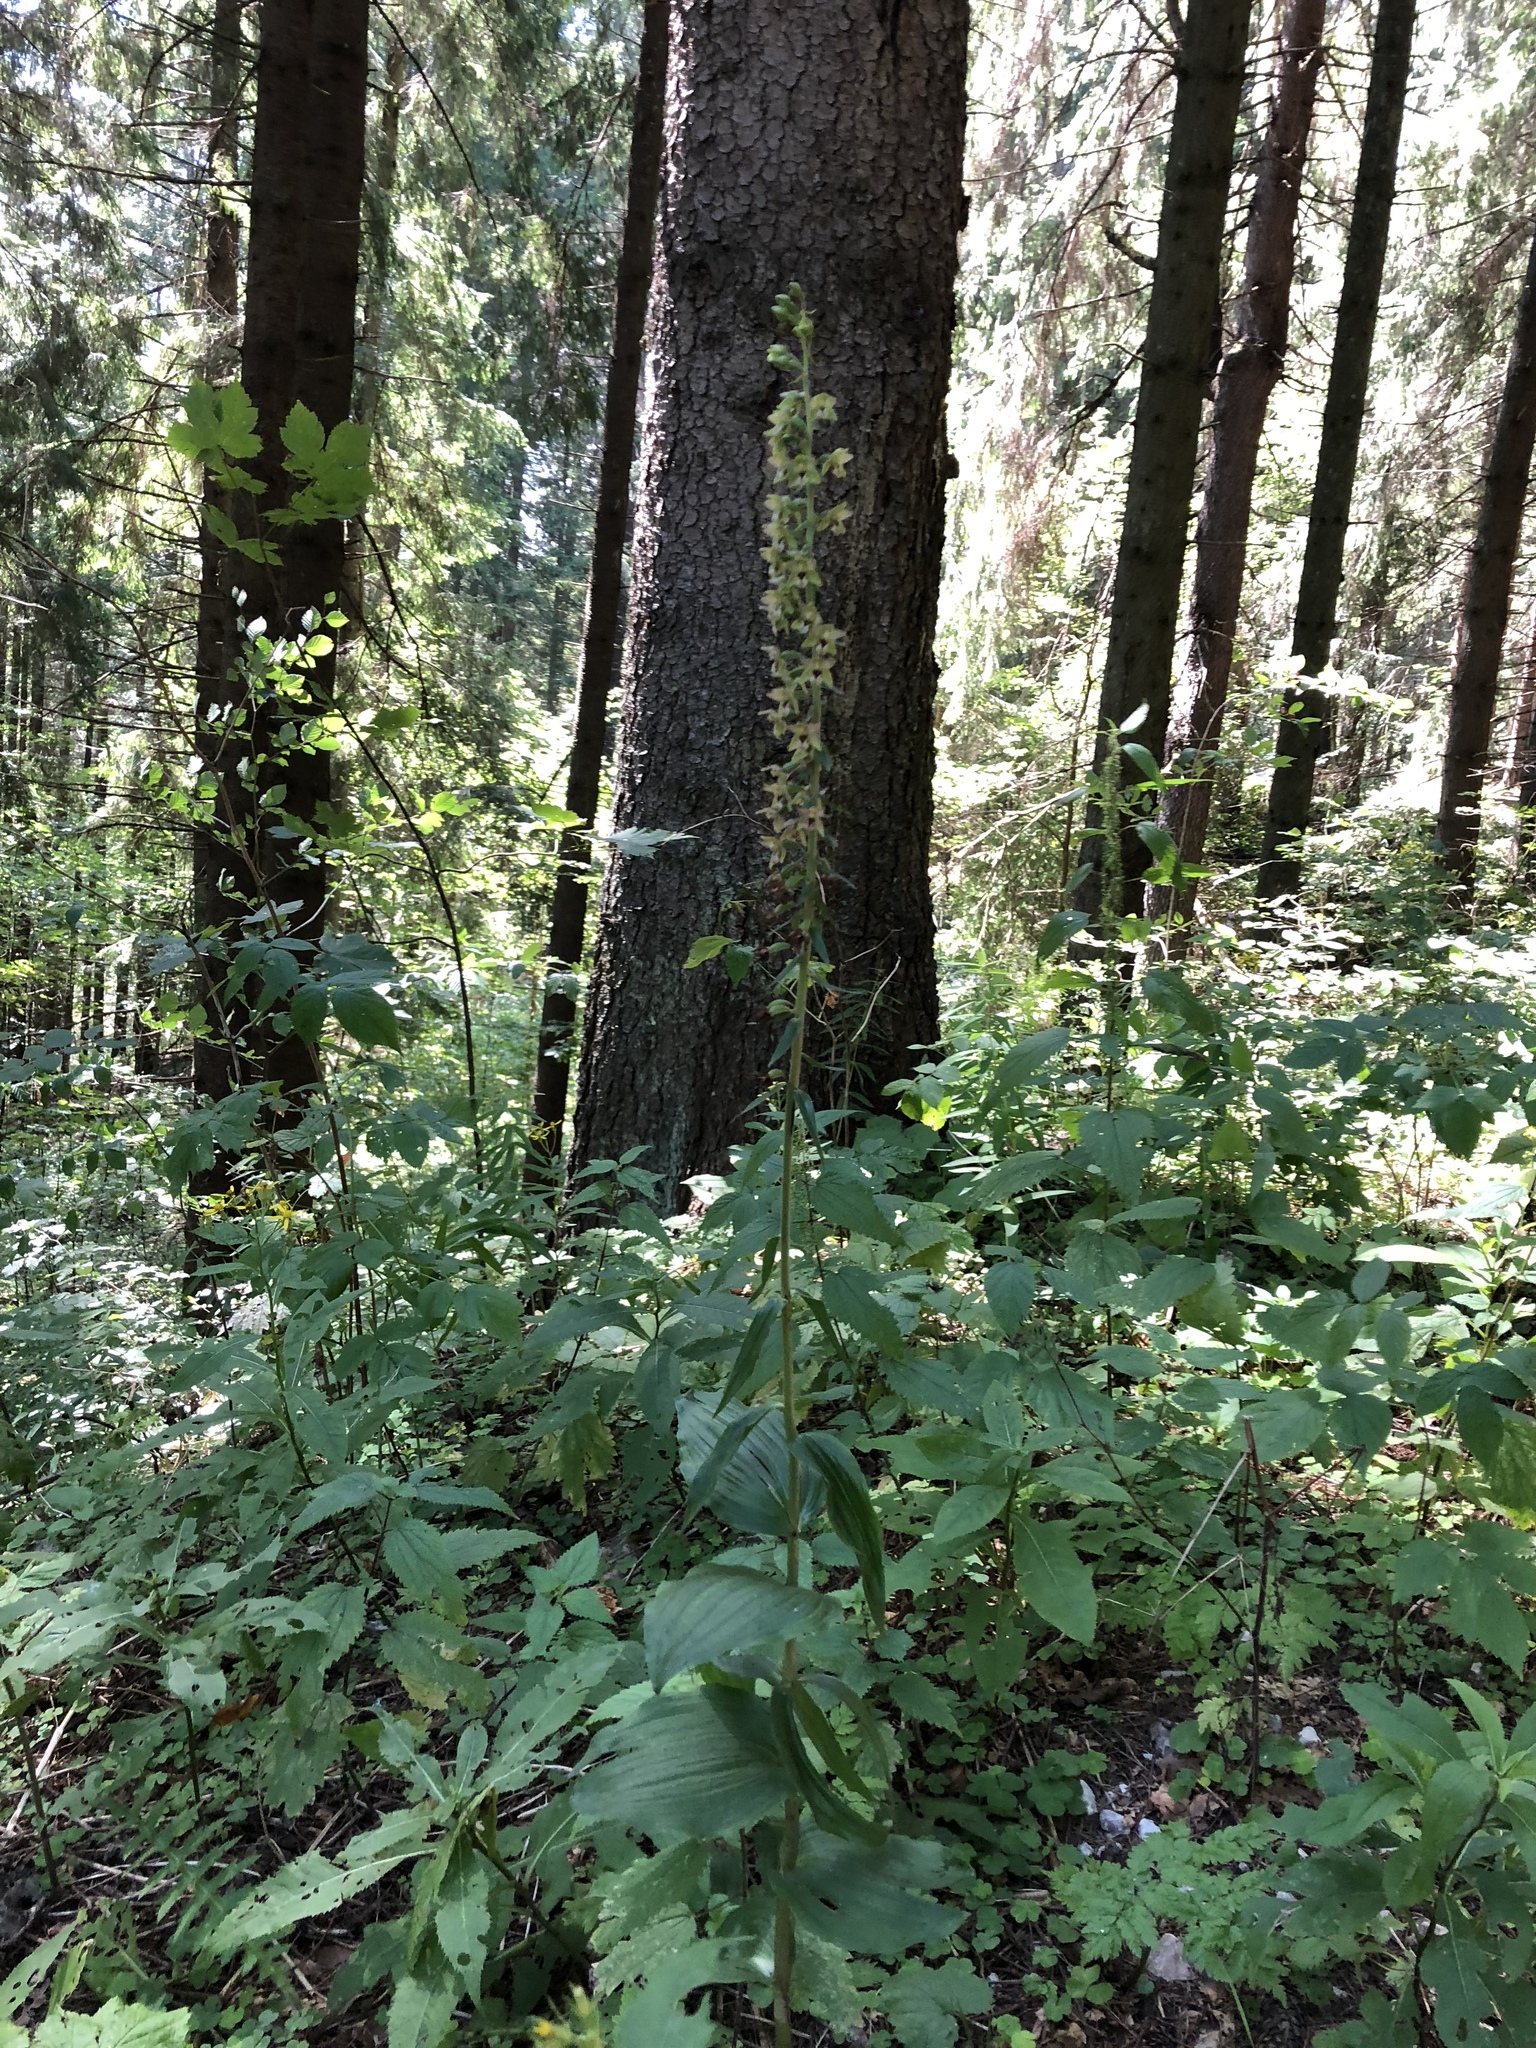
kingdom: Plantae
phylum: Tracheophyta
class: Liliopsida
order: Asparagales
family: Orchidaceae
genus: Epipactis
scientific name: Epipactis helleborine
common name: Broad-leaved helleborine
